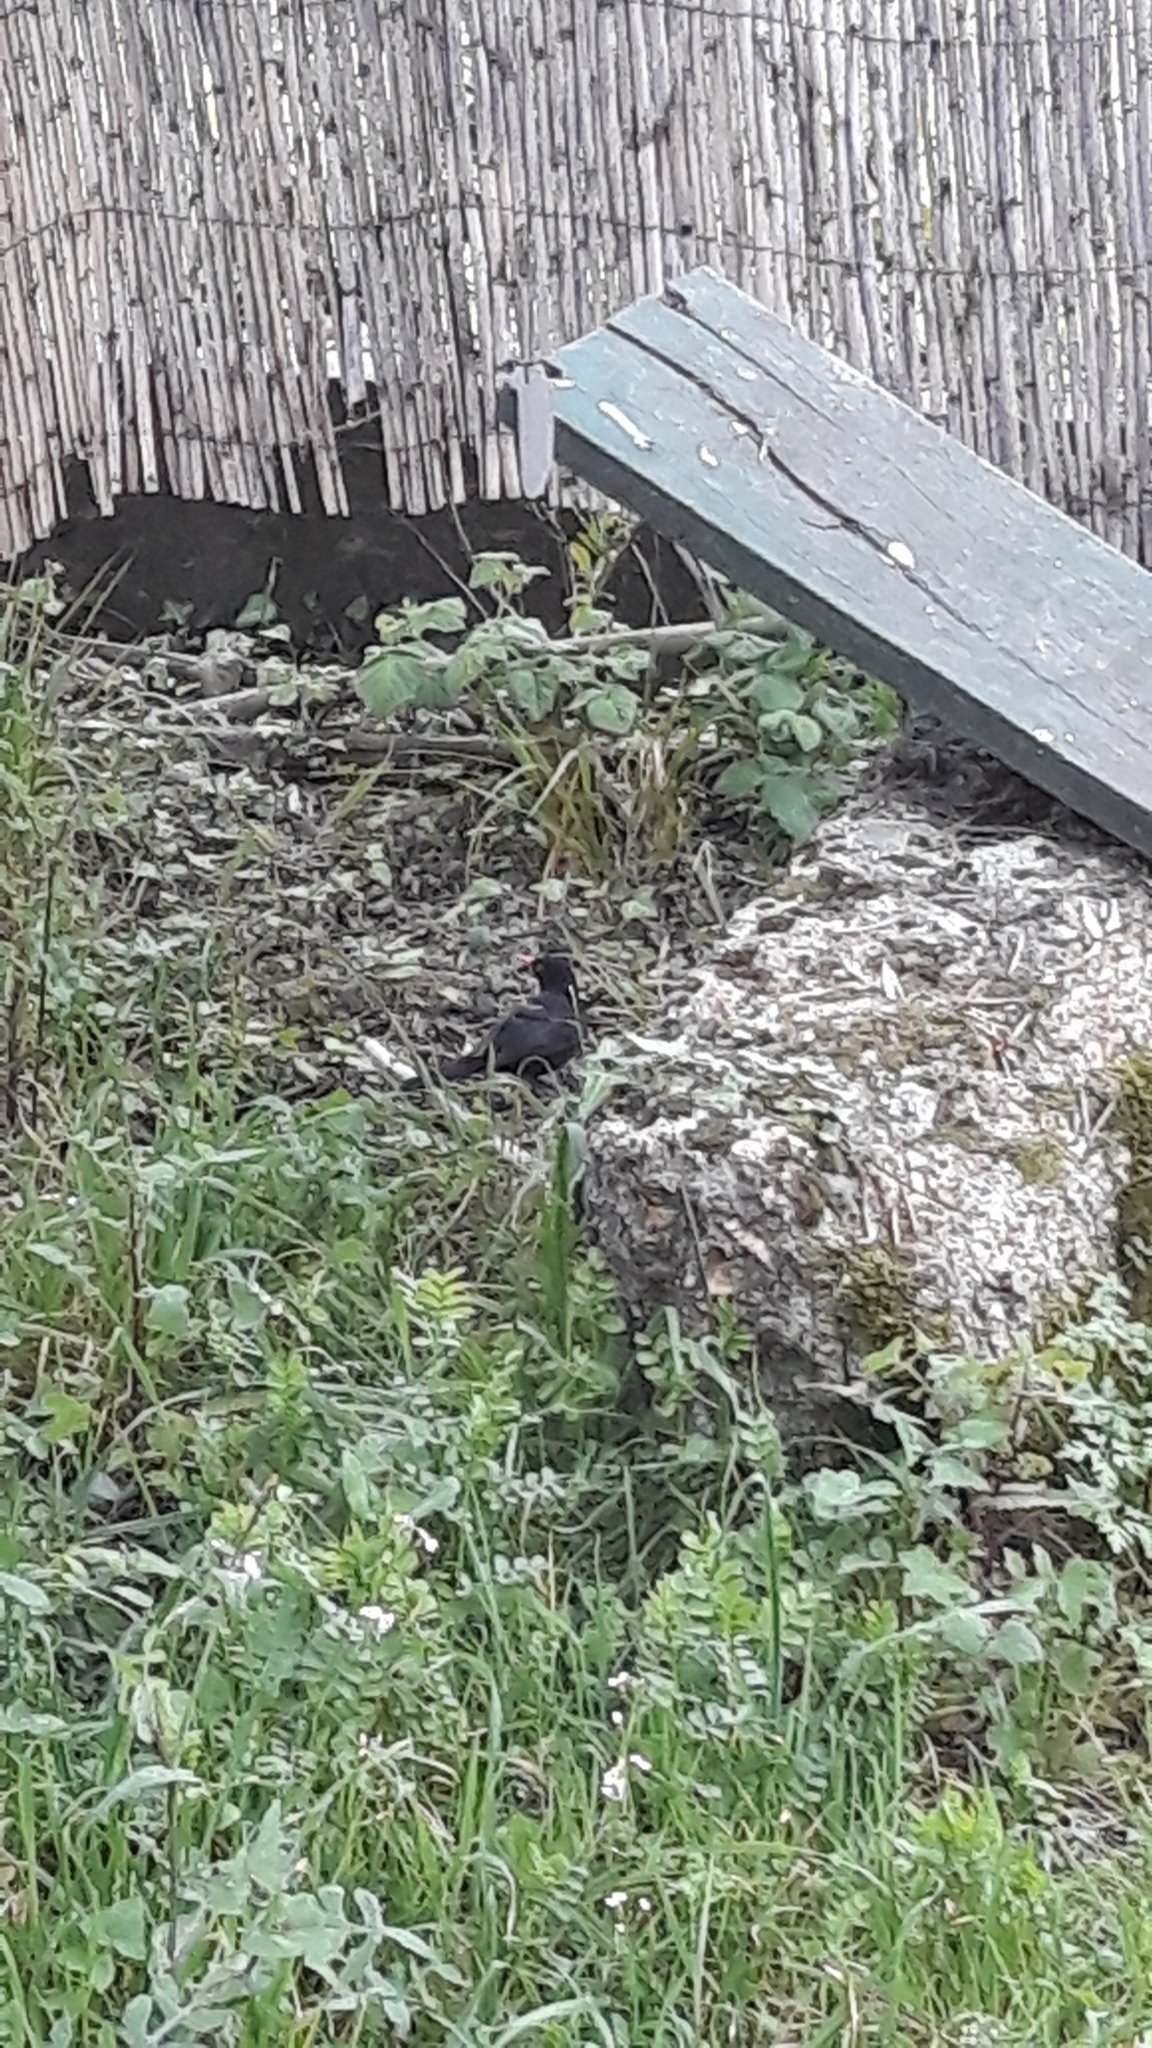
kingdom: Animalia
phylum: Chordata
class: Aves
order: Passeriformes
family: Turdidae
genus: Turdus
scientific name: Turdus merula
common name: Common blackbird
